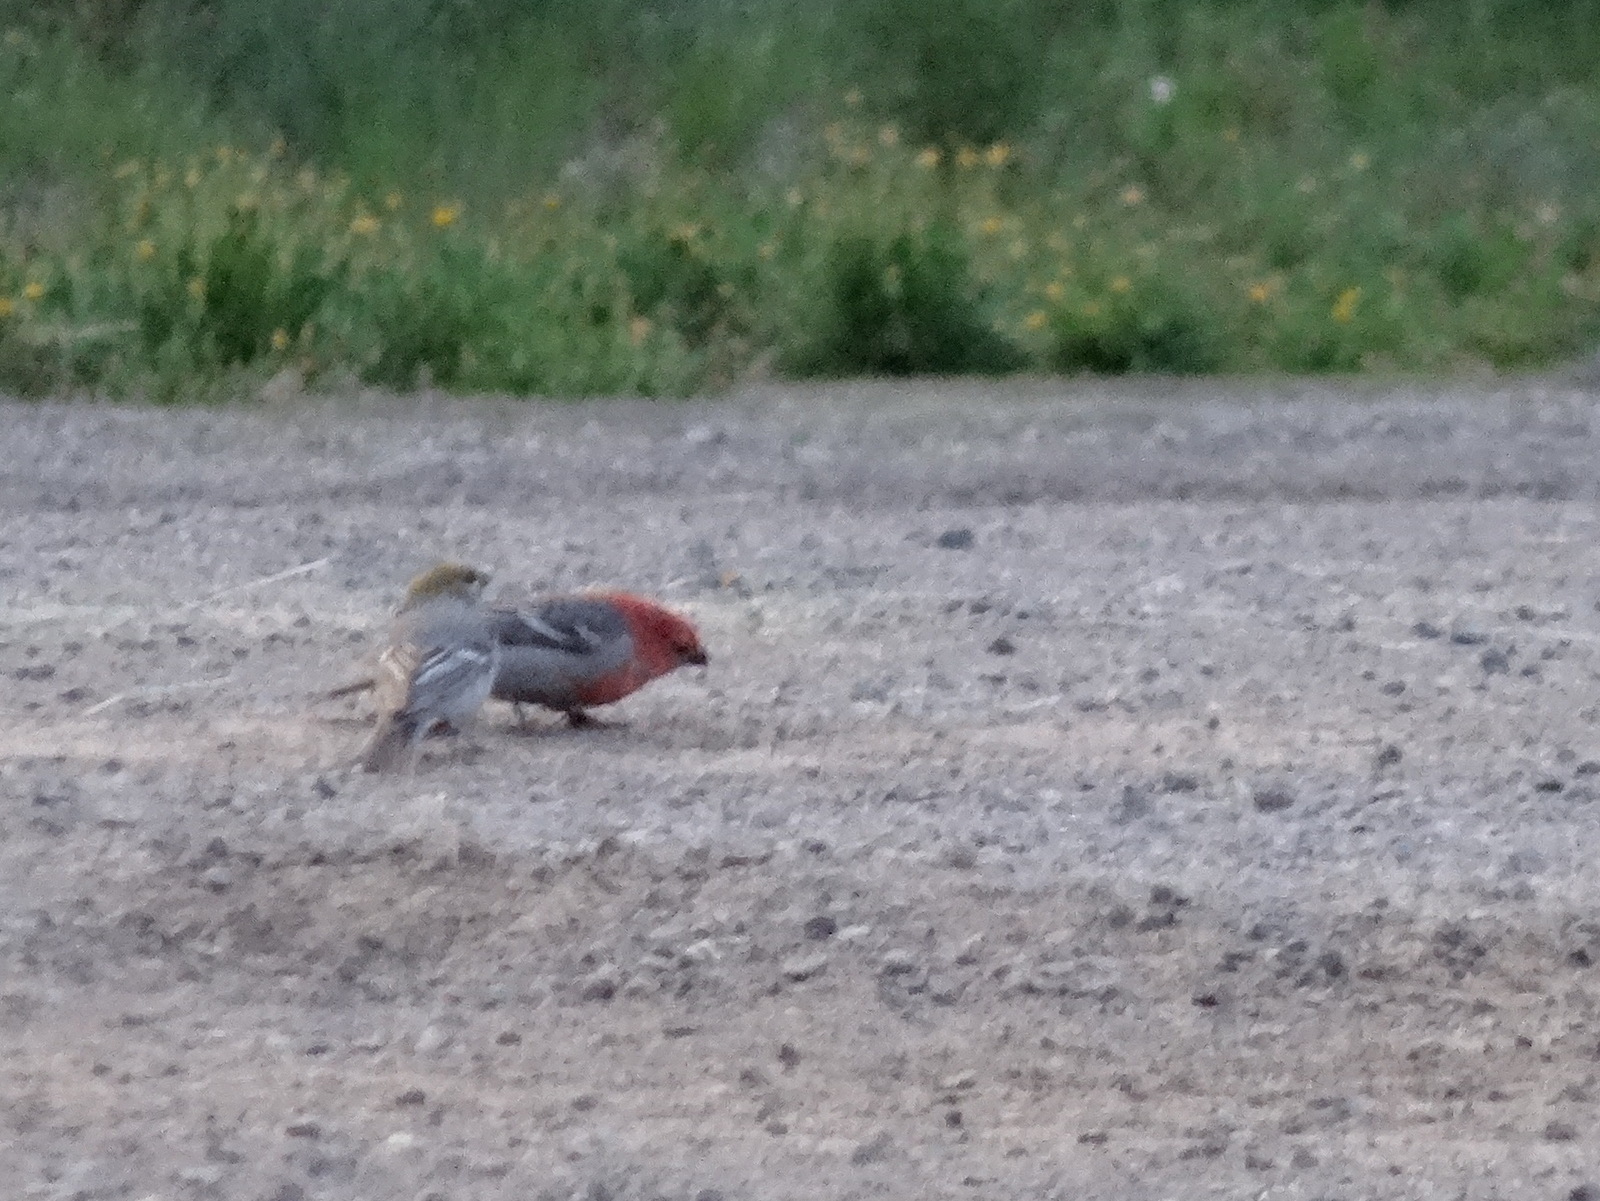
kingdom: Animalia
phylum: Chordata
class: Aves
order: Passeriformes
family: Fringillidae
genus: Pinicola
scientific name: Pinicola enucleator
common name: Pine grosbeak
